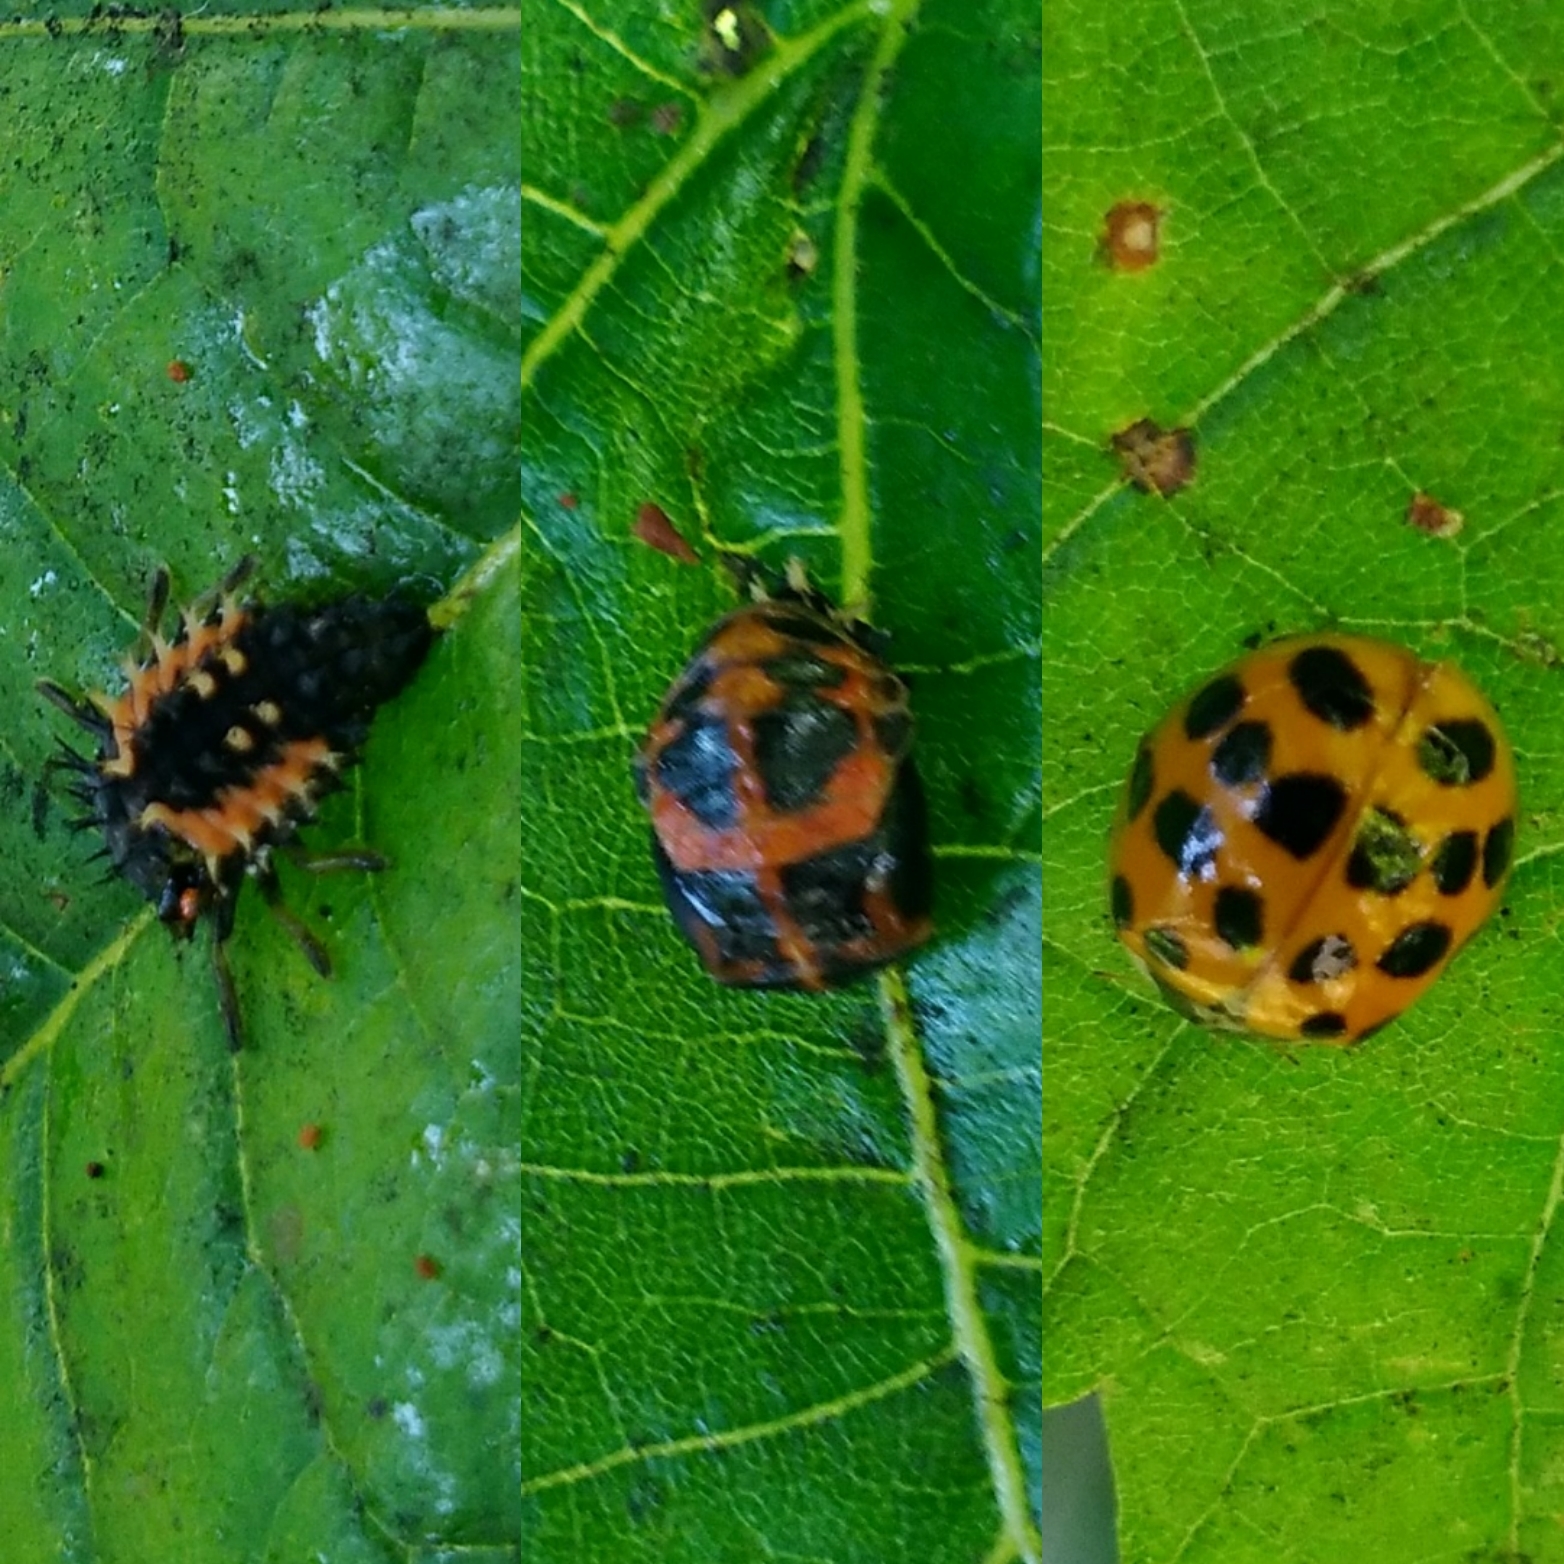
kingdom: Animalia
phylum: Arthropoda
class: Insecta
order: Coleoptera
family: Coccinellidae
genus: Harmonia
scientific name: Harmonia axyridis
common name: Harlequin ladybird
